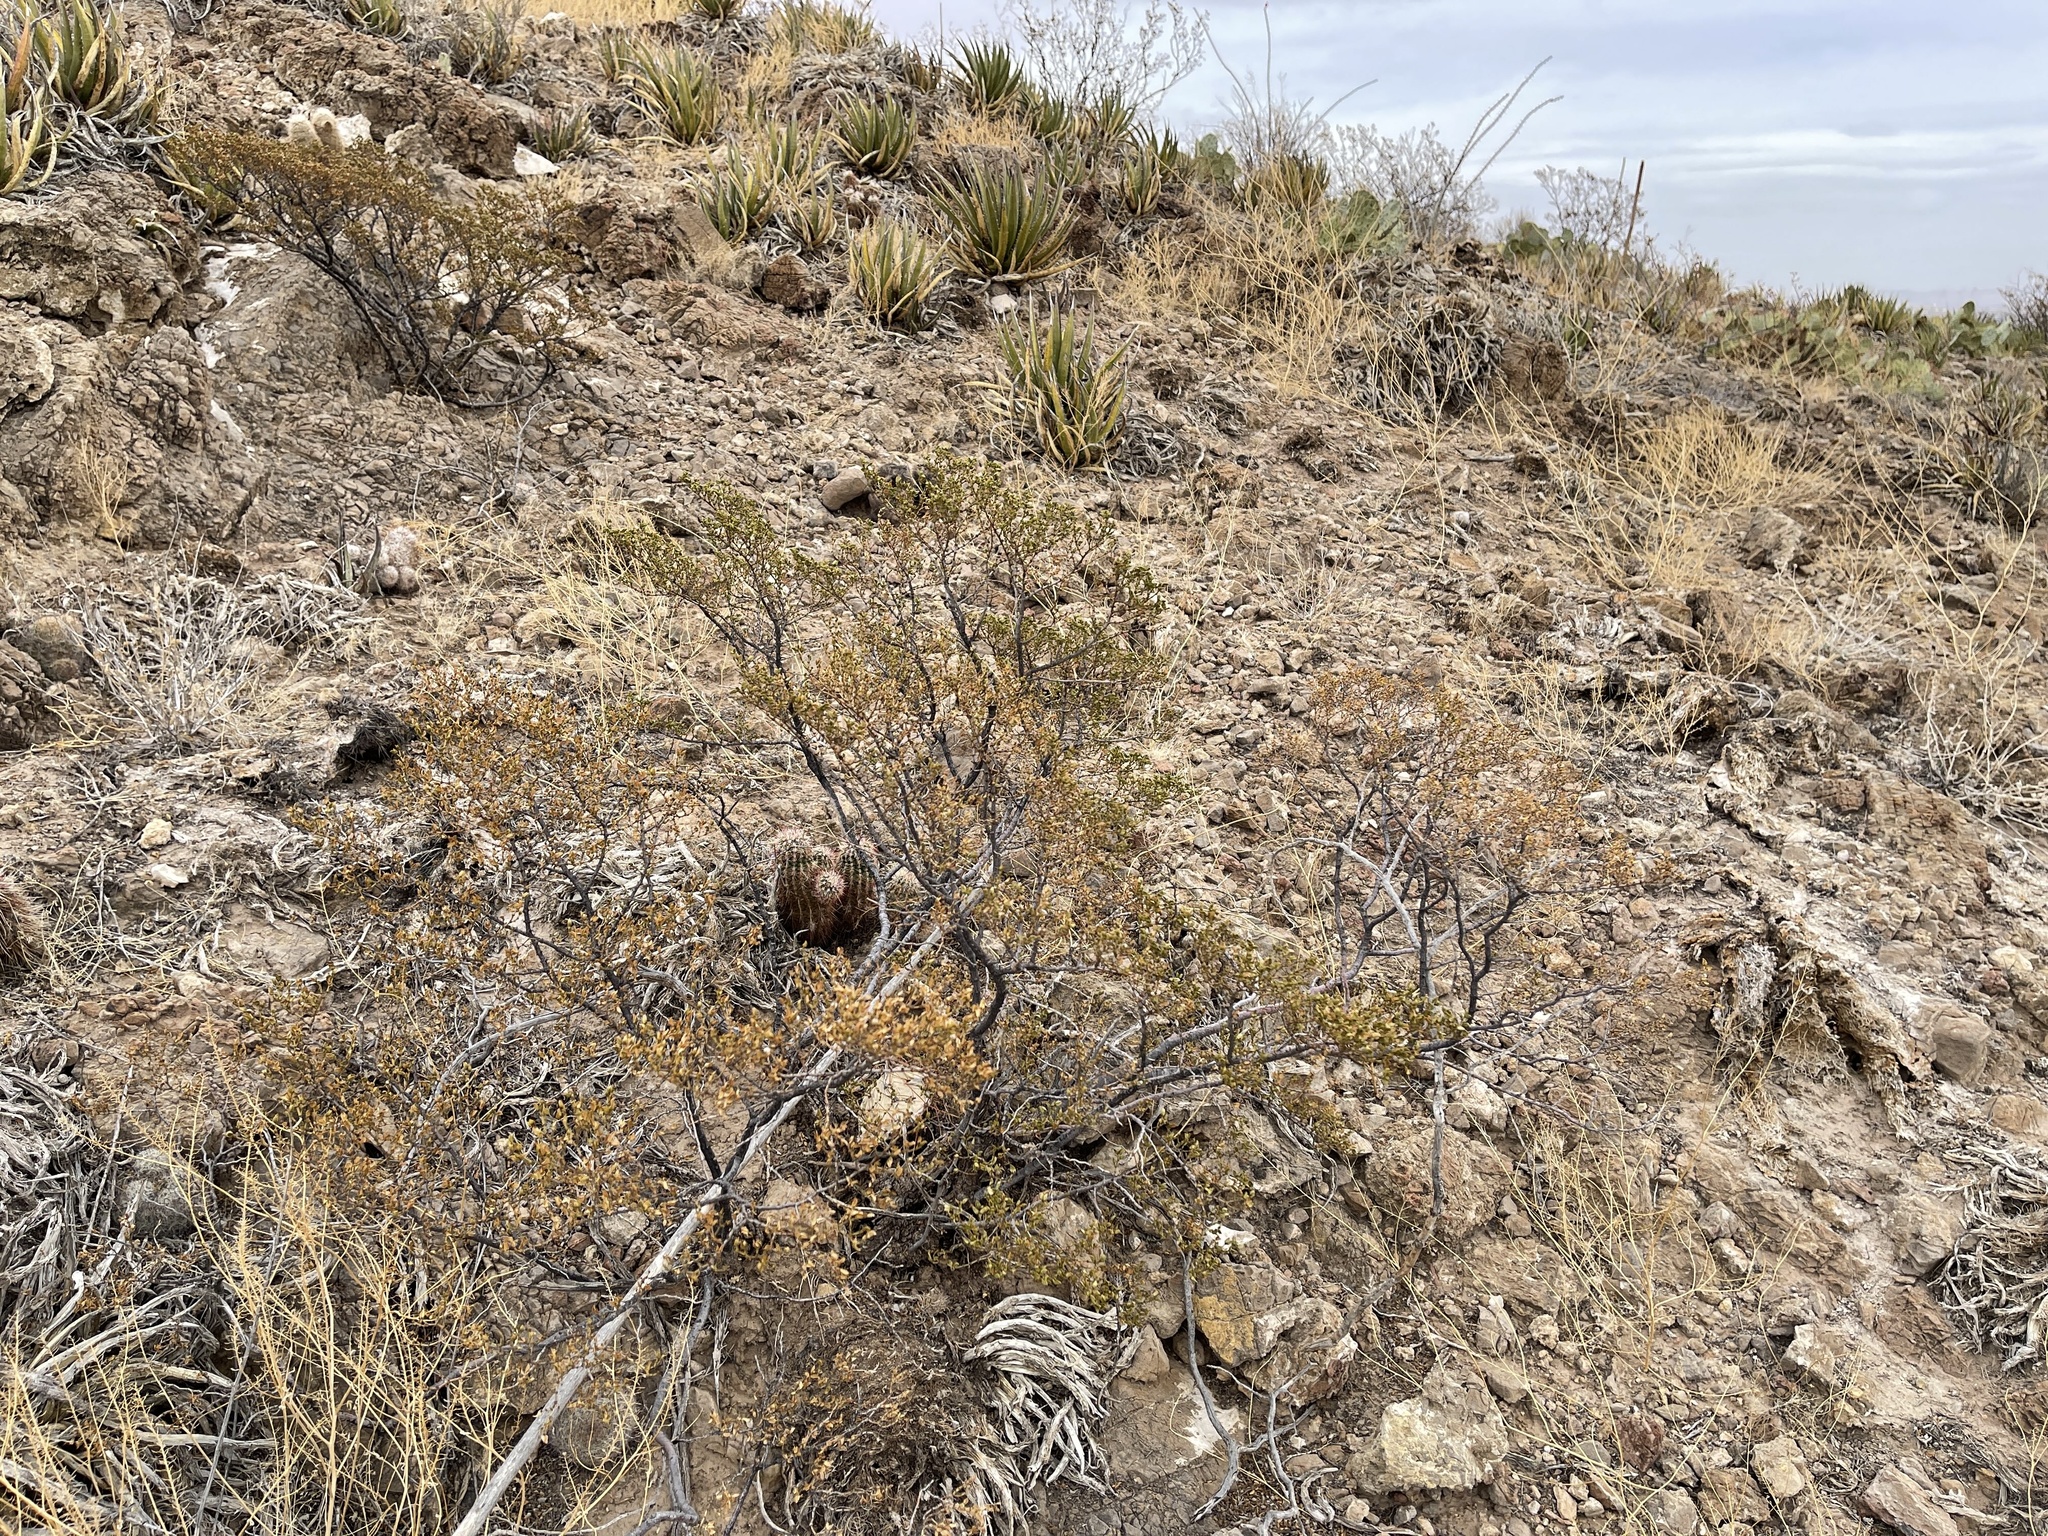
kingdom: Plantae
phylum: Tracheophyta
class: Magnoliopsida
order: Zygophyllales
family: Zygophyllaceae
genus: Larrea
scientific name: Larrea tridentata
